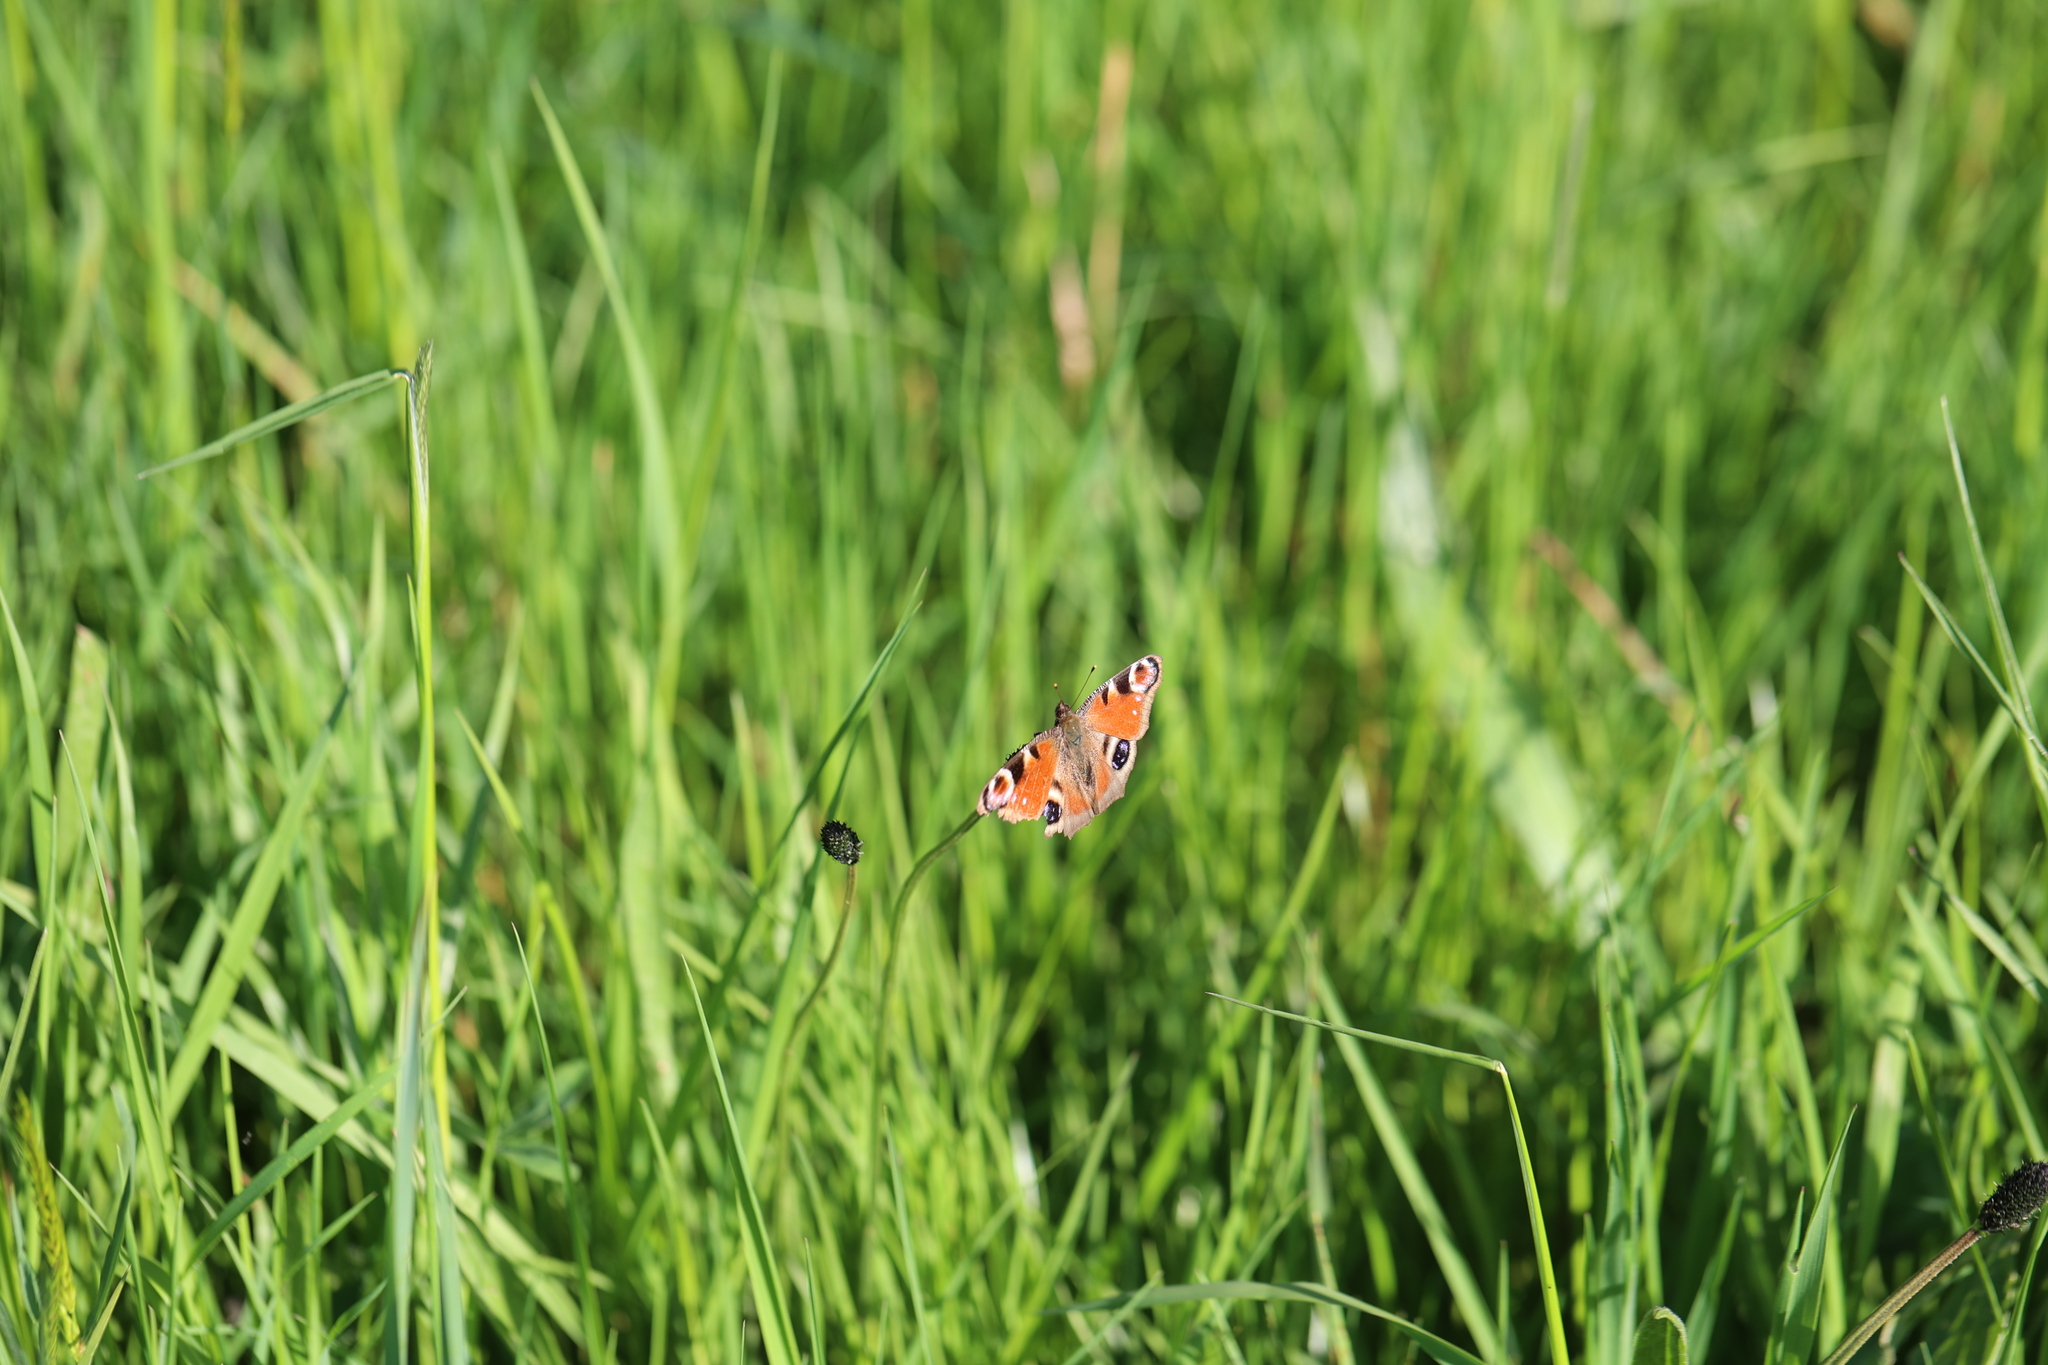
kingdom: Animalia
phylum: Arthropoda
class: Insecta
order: Lepidoptera
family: Nymphalidae
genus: Aglais
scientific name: Aglais io
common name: Peacock
